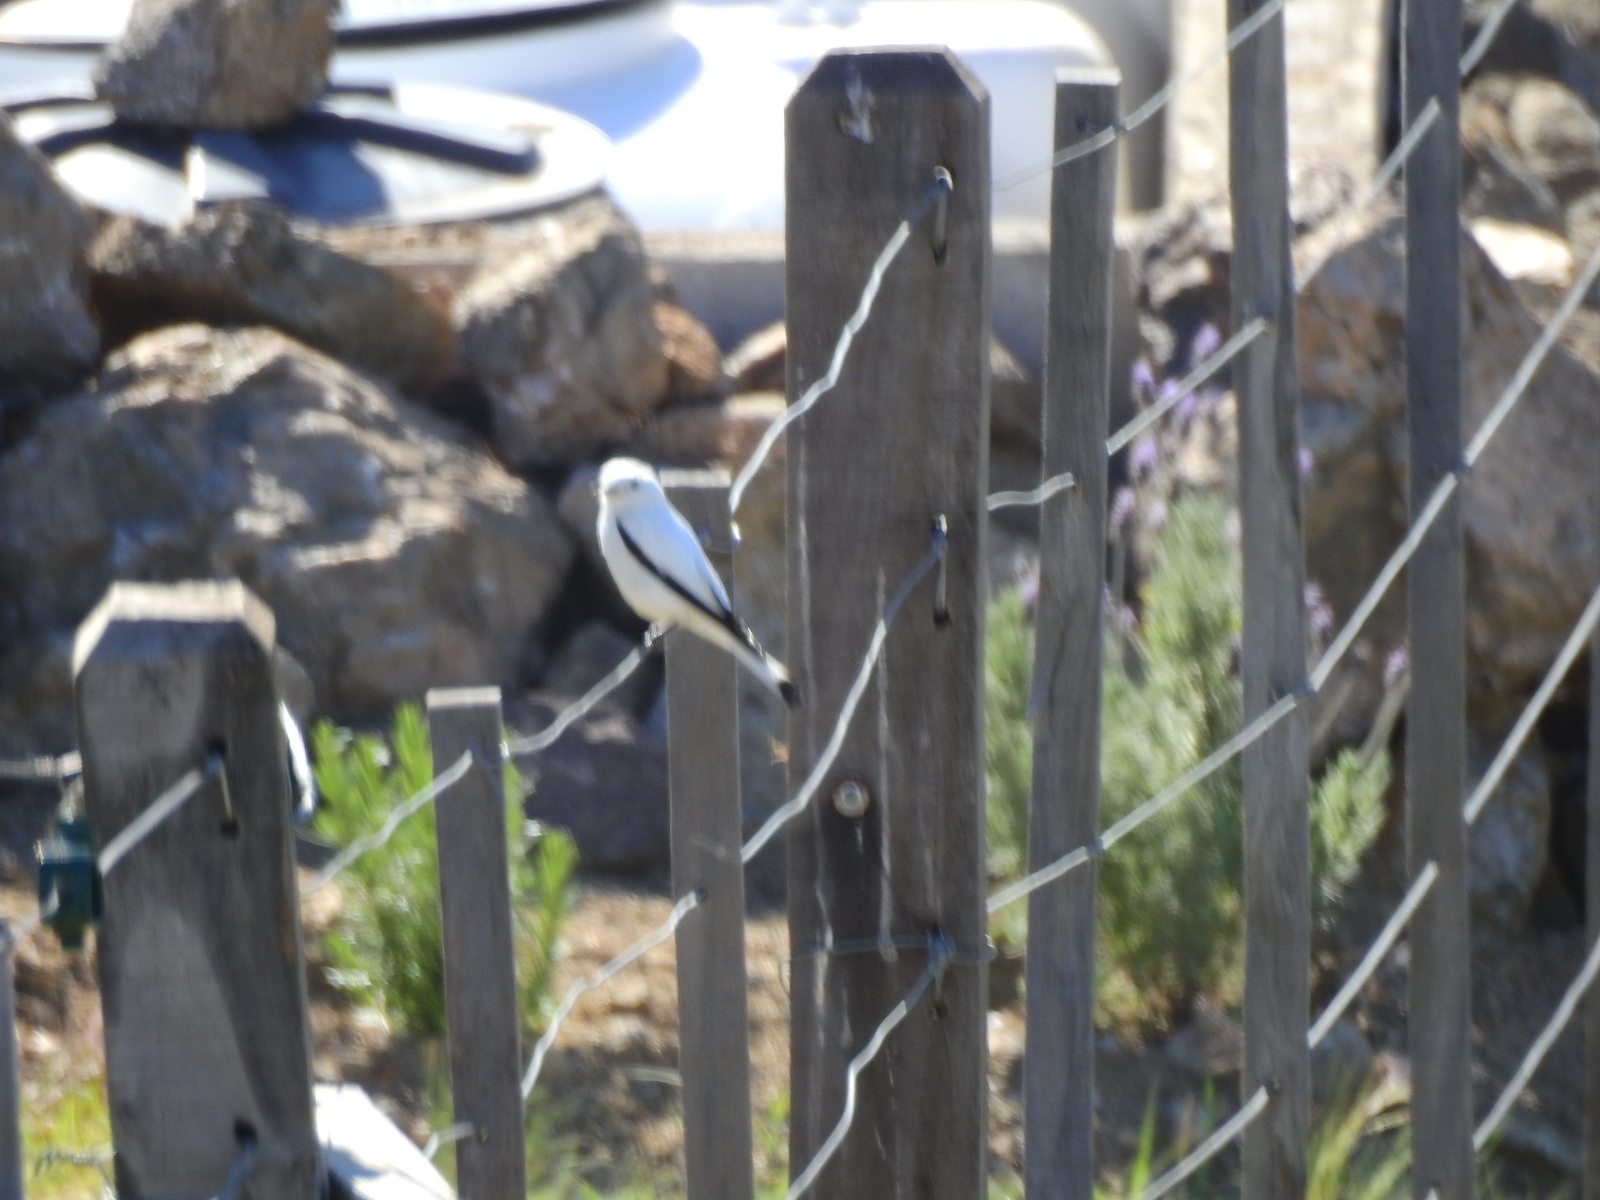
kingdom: Animalia
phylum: Chordata
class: Aves
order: Passeriformes
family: Tyrannidae
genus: Xolmis
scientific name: Xolmis irupero
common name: White monjita
